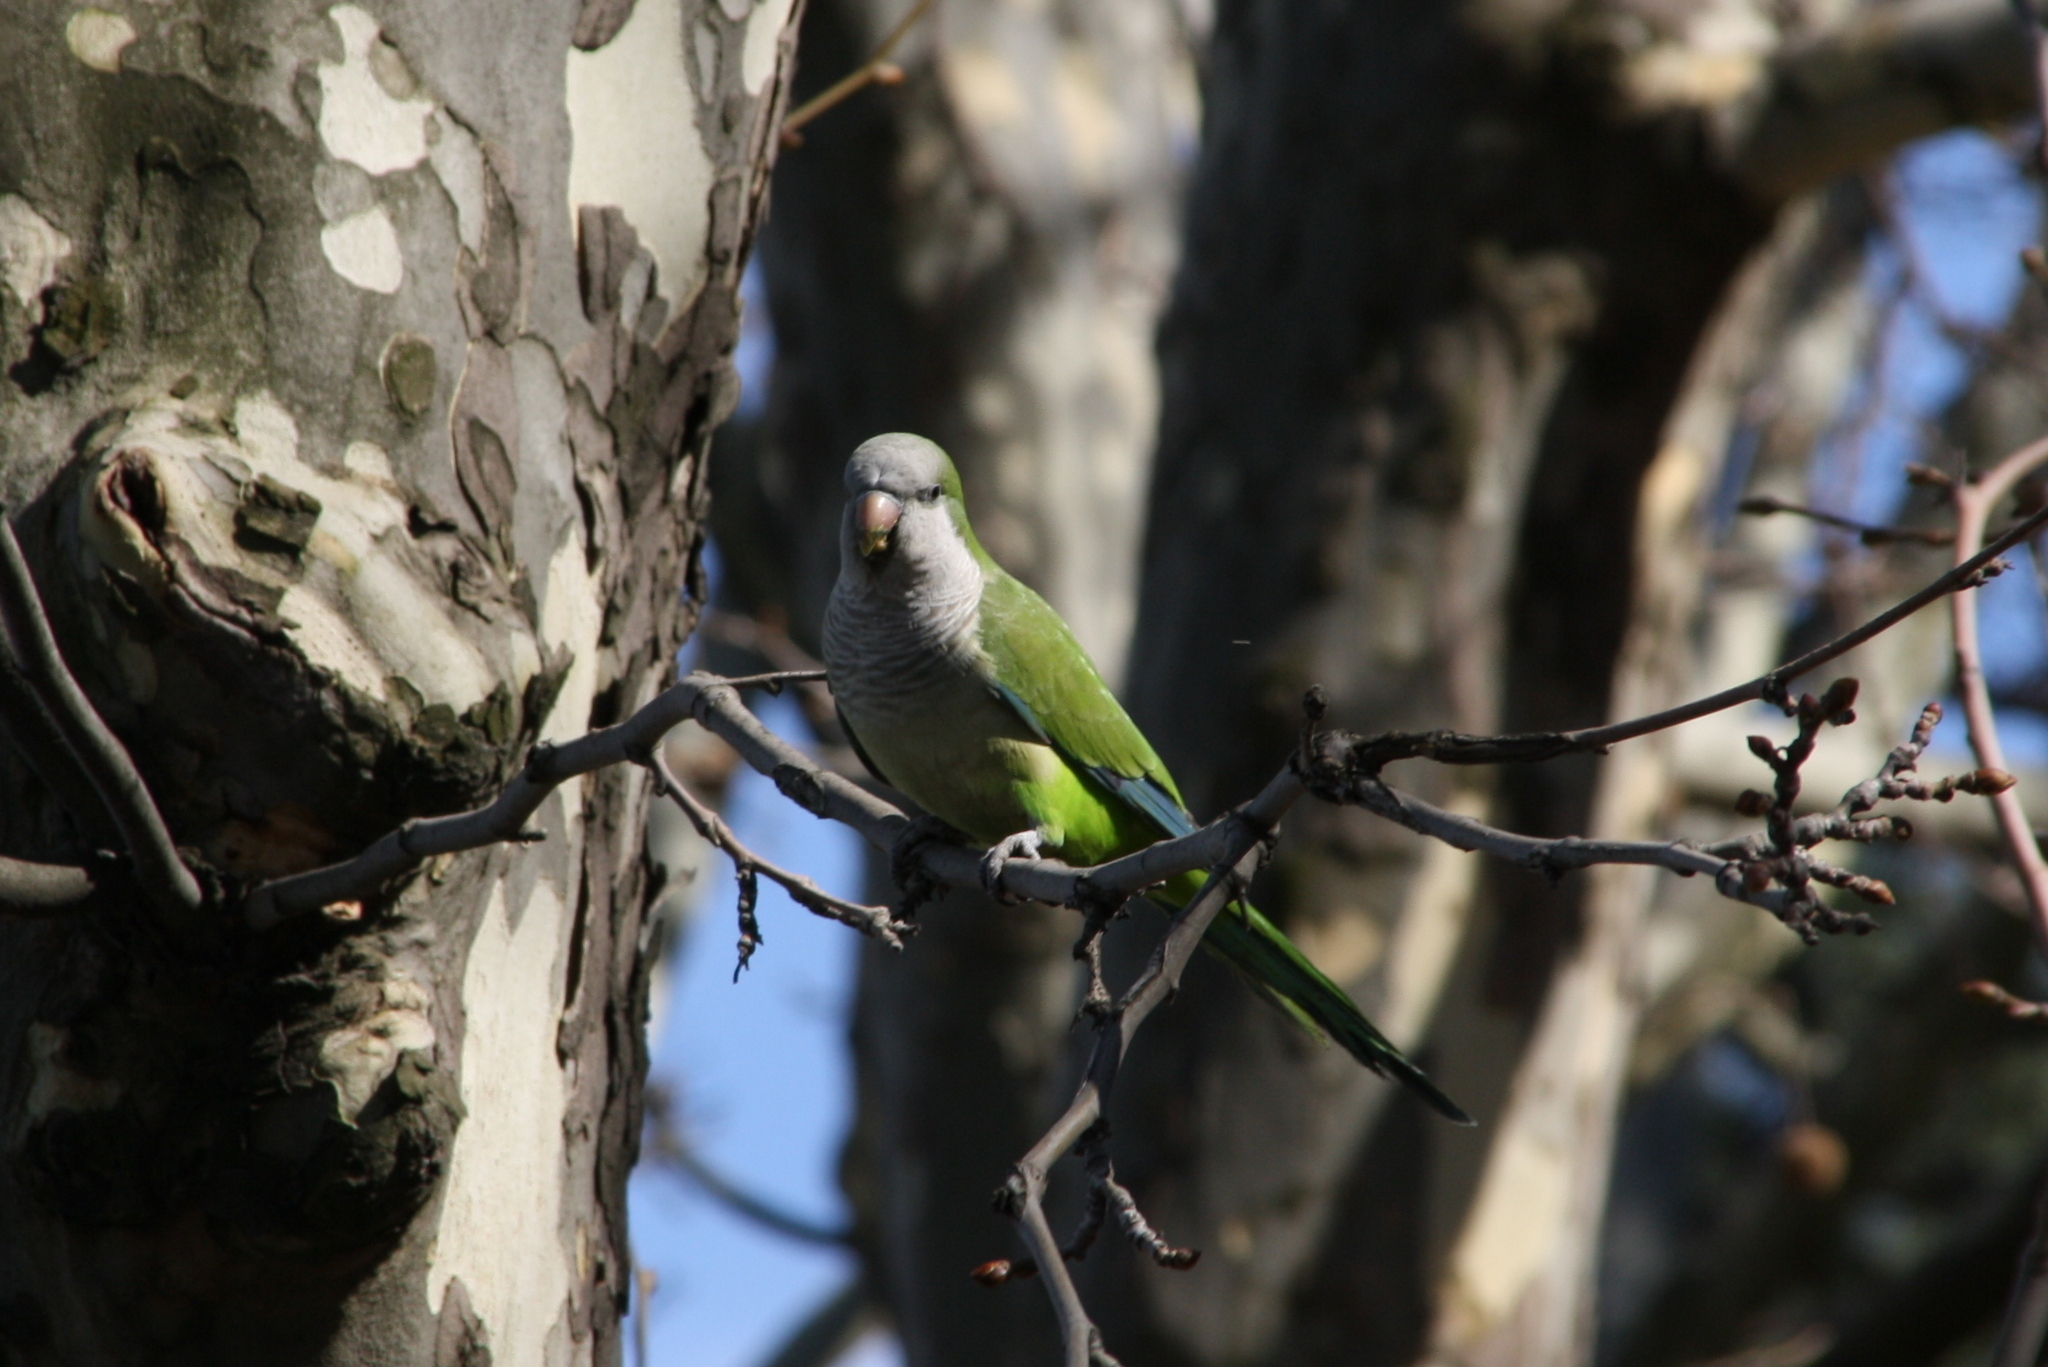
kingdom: Animalia
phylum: Chordata
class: Aves
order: Psittaciformes
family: Psittacidae
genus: Myiopsitta
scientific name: Myiopsitta monachus
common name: Monk parakeet
